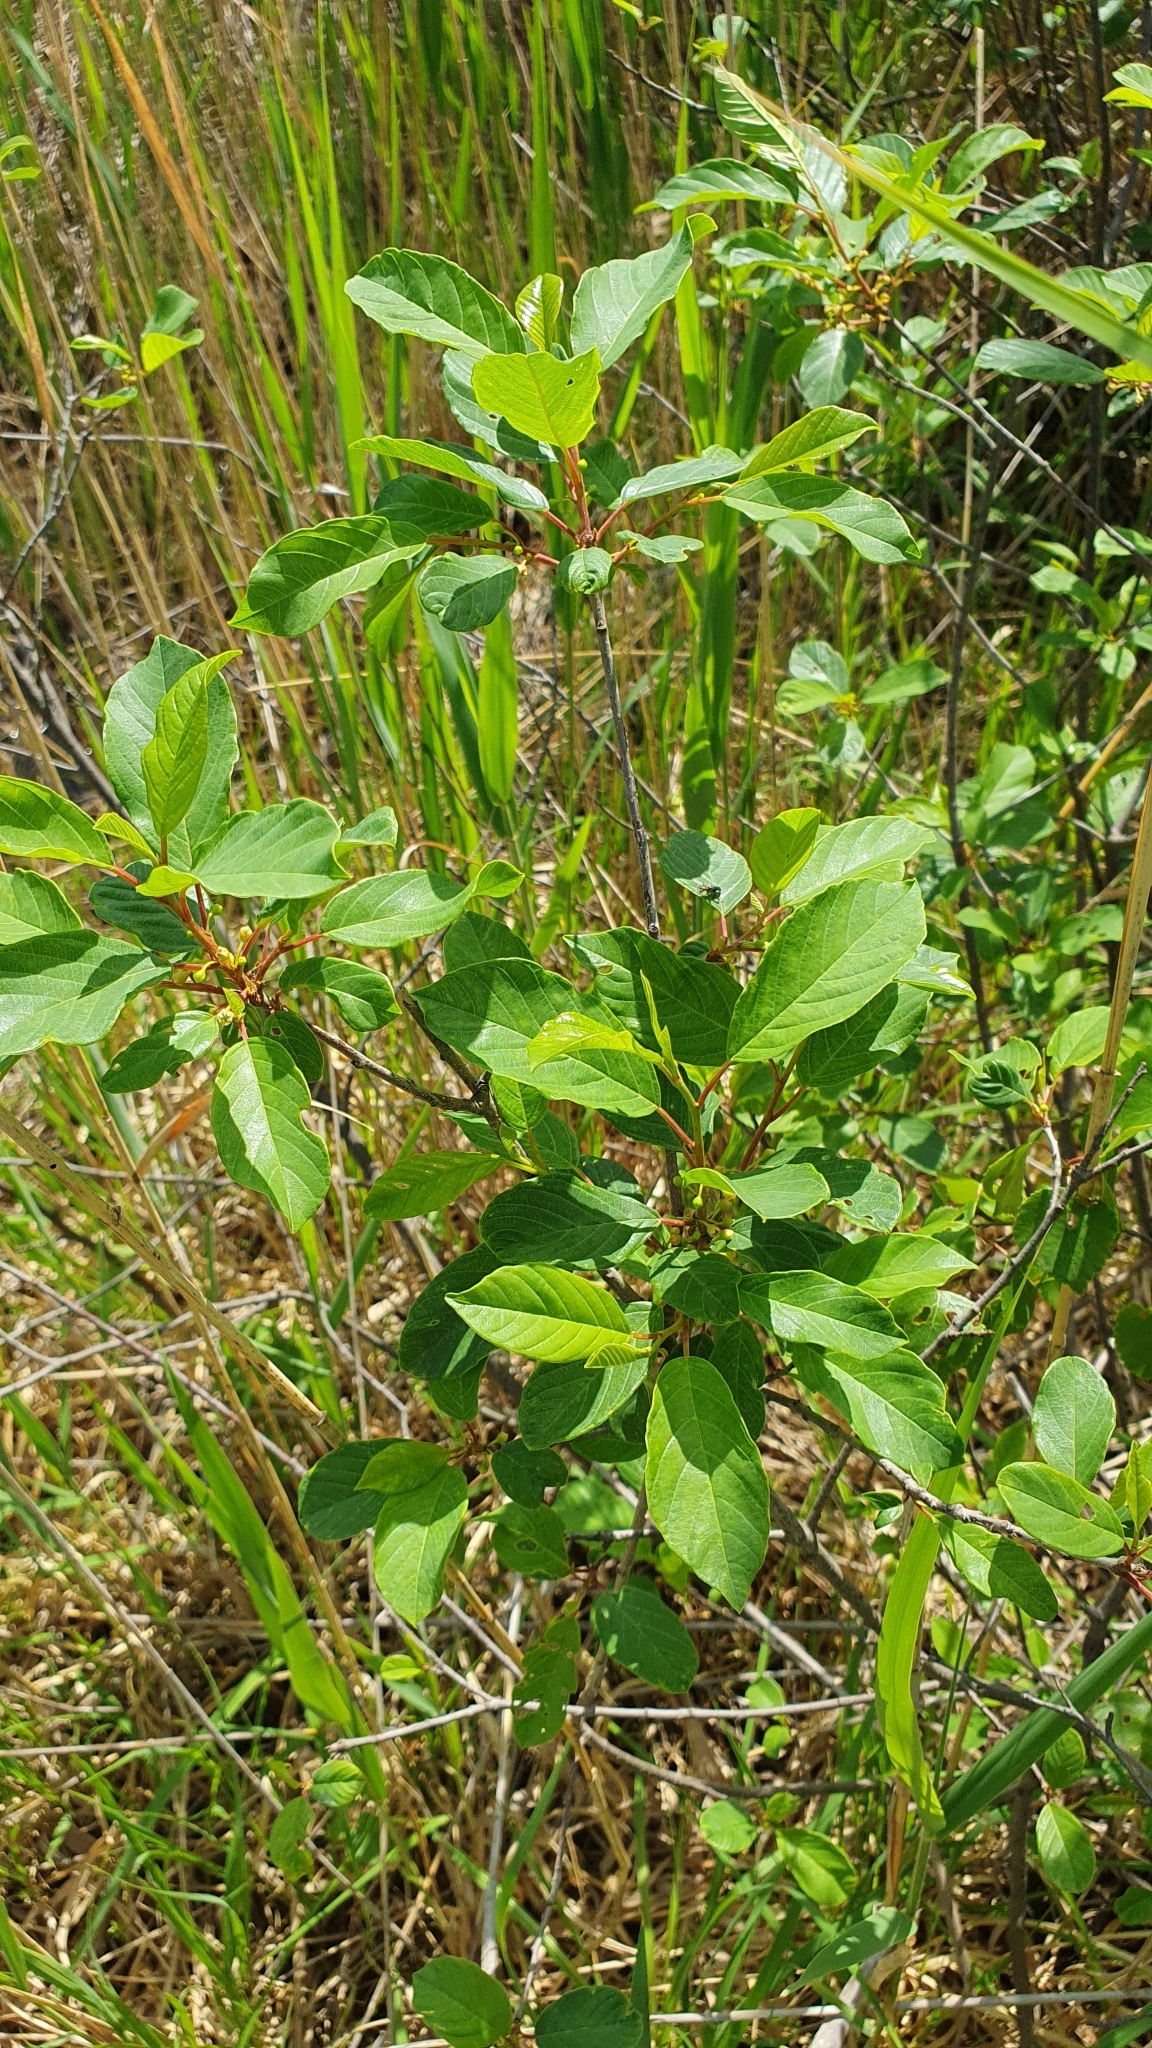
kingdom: Plantae
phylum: Tracheophyta
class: Magnoliopsida
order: Rosales
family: Rhamnaceae
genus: Frangula
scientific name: Frangula alnus
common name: Alder buckthorn
